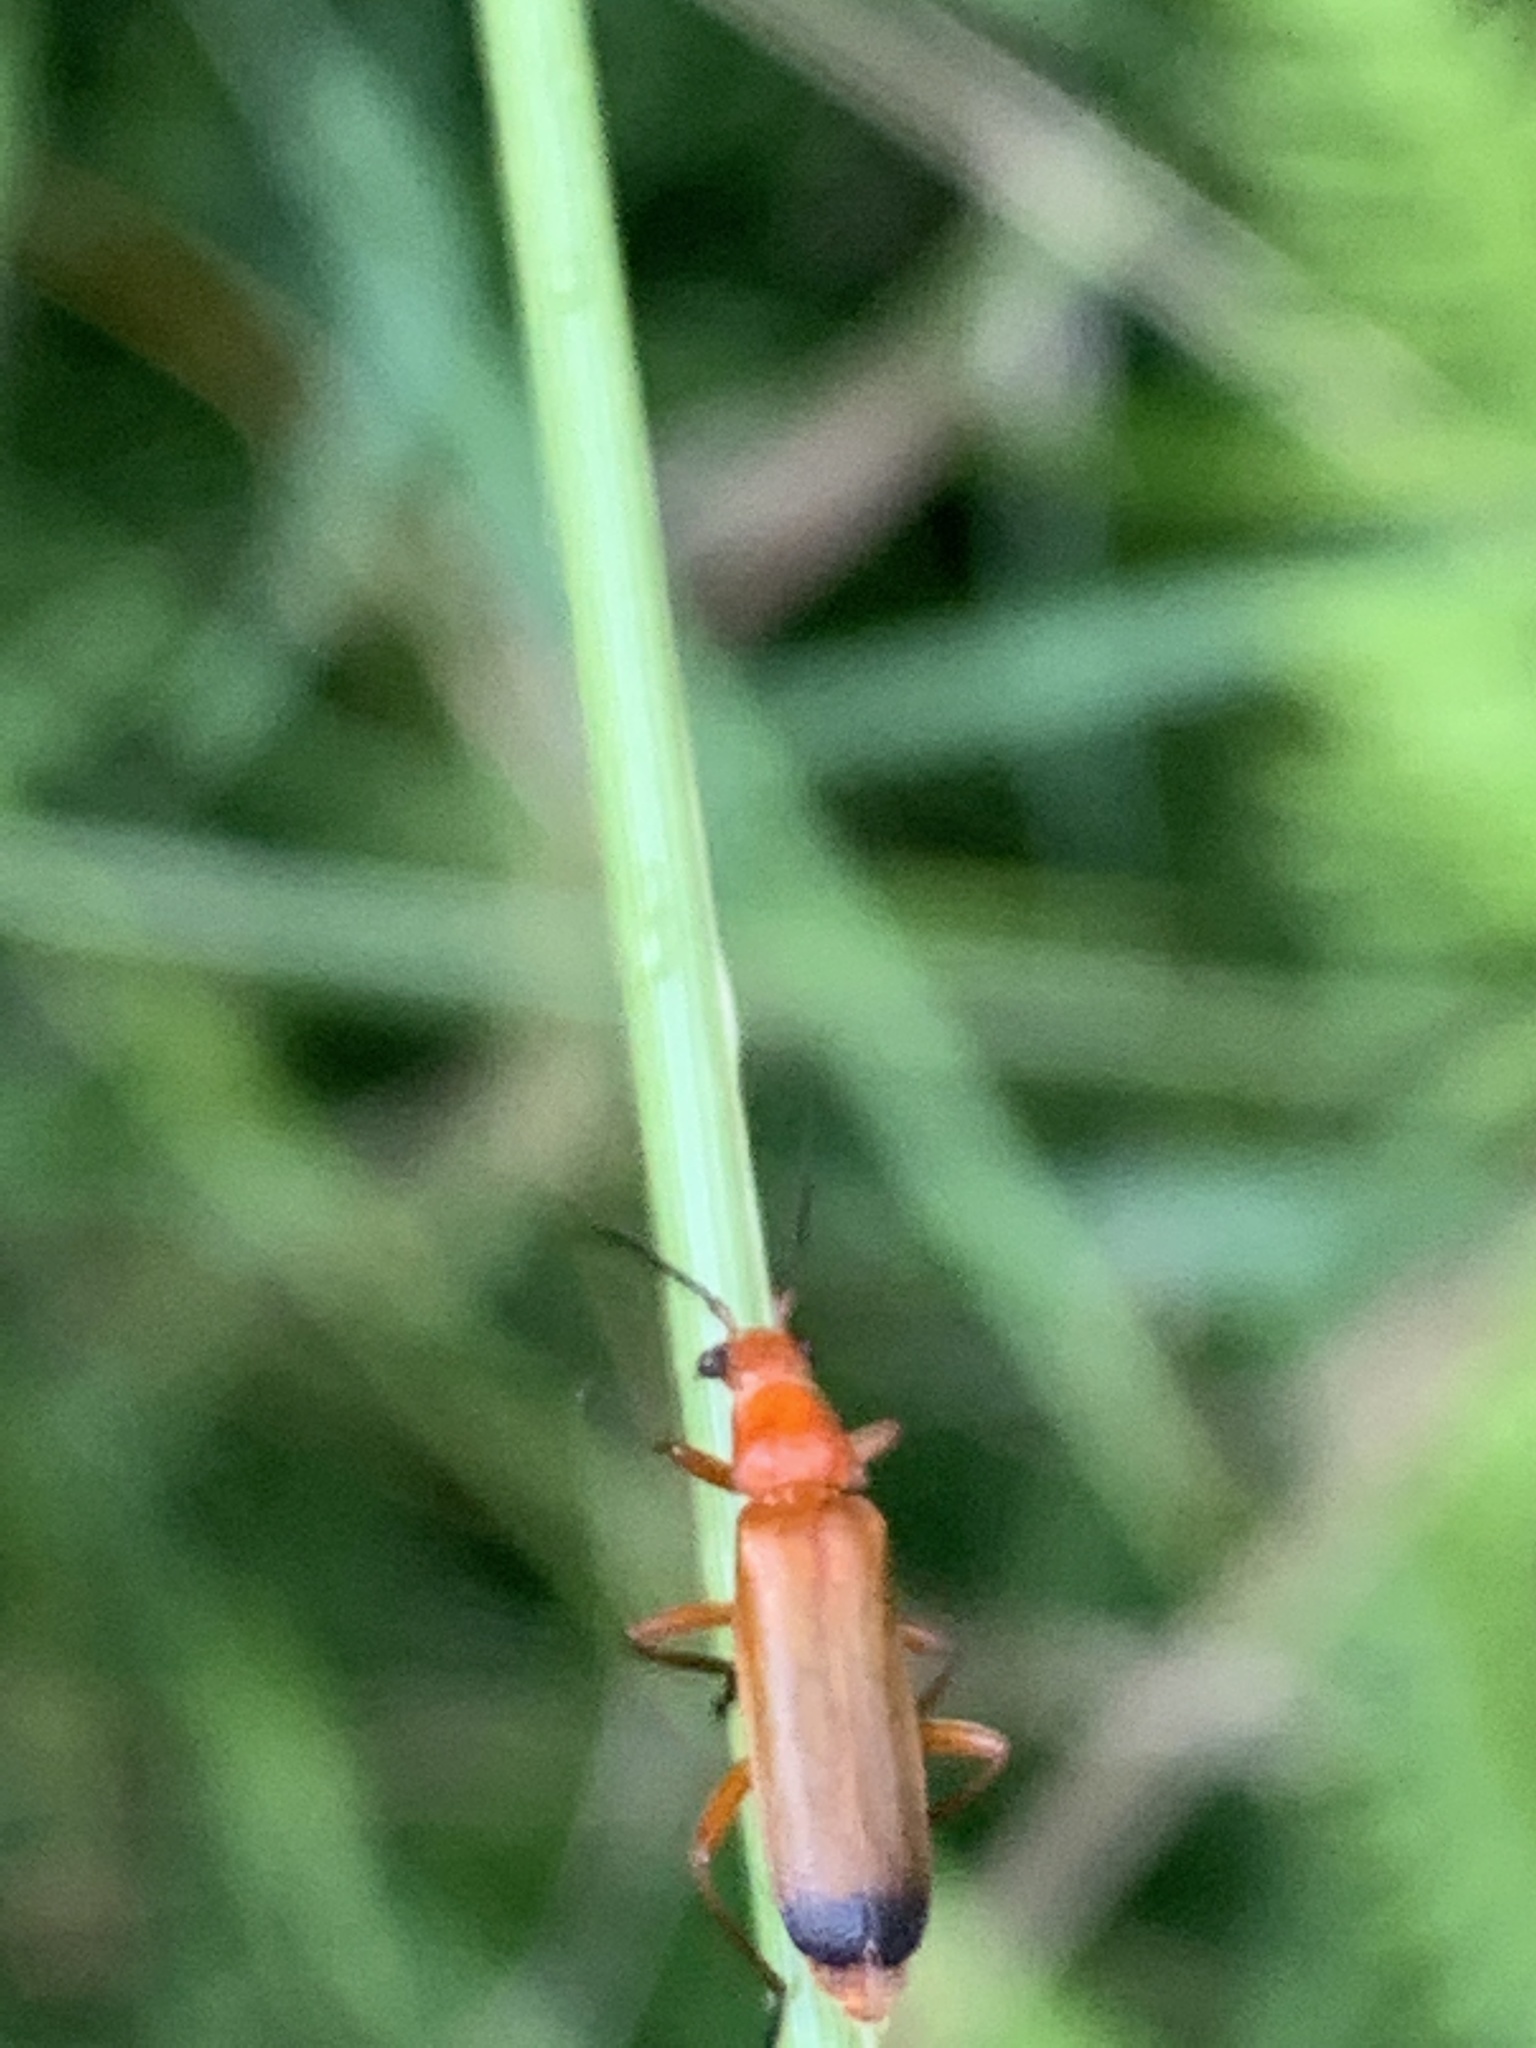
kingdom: Animalia
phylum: Arthropoda
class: Insecta
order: Coleoptera
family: Cantharidae
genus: Rhagonycha
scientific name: Rhagonycha fulva
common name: Common red soldier beetle
